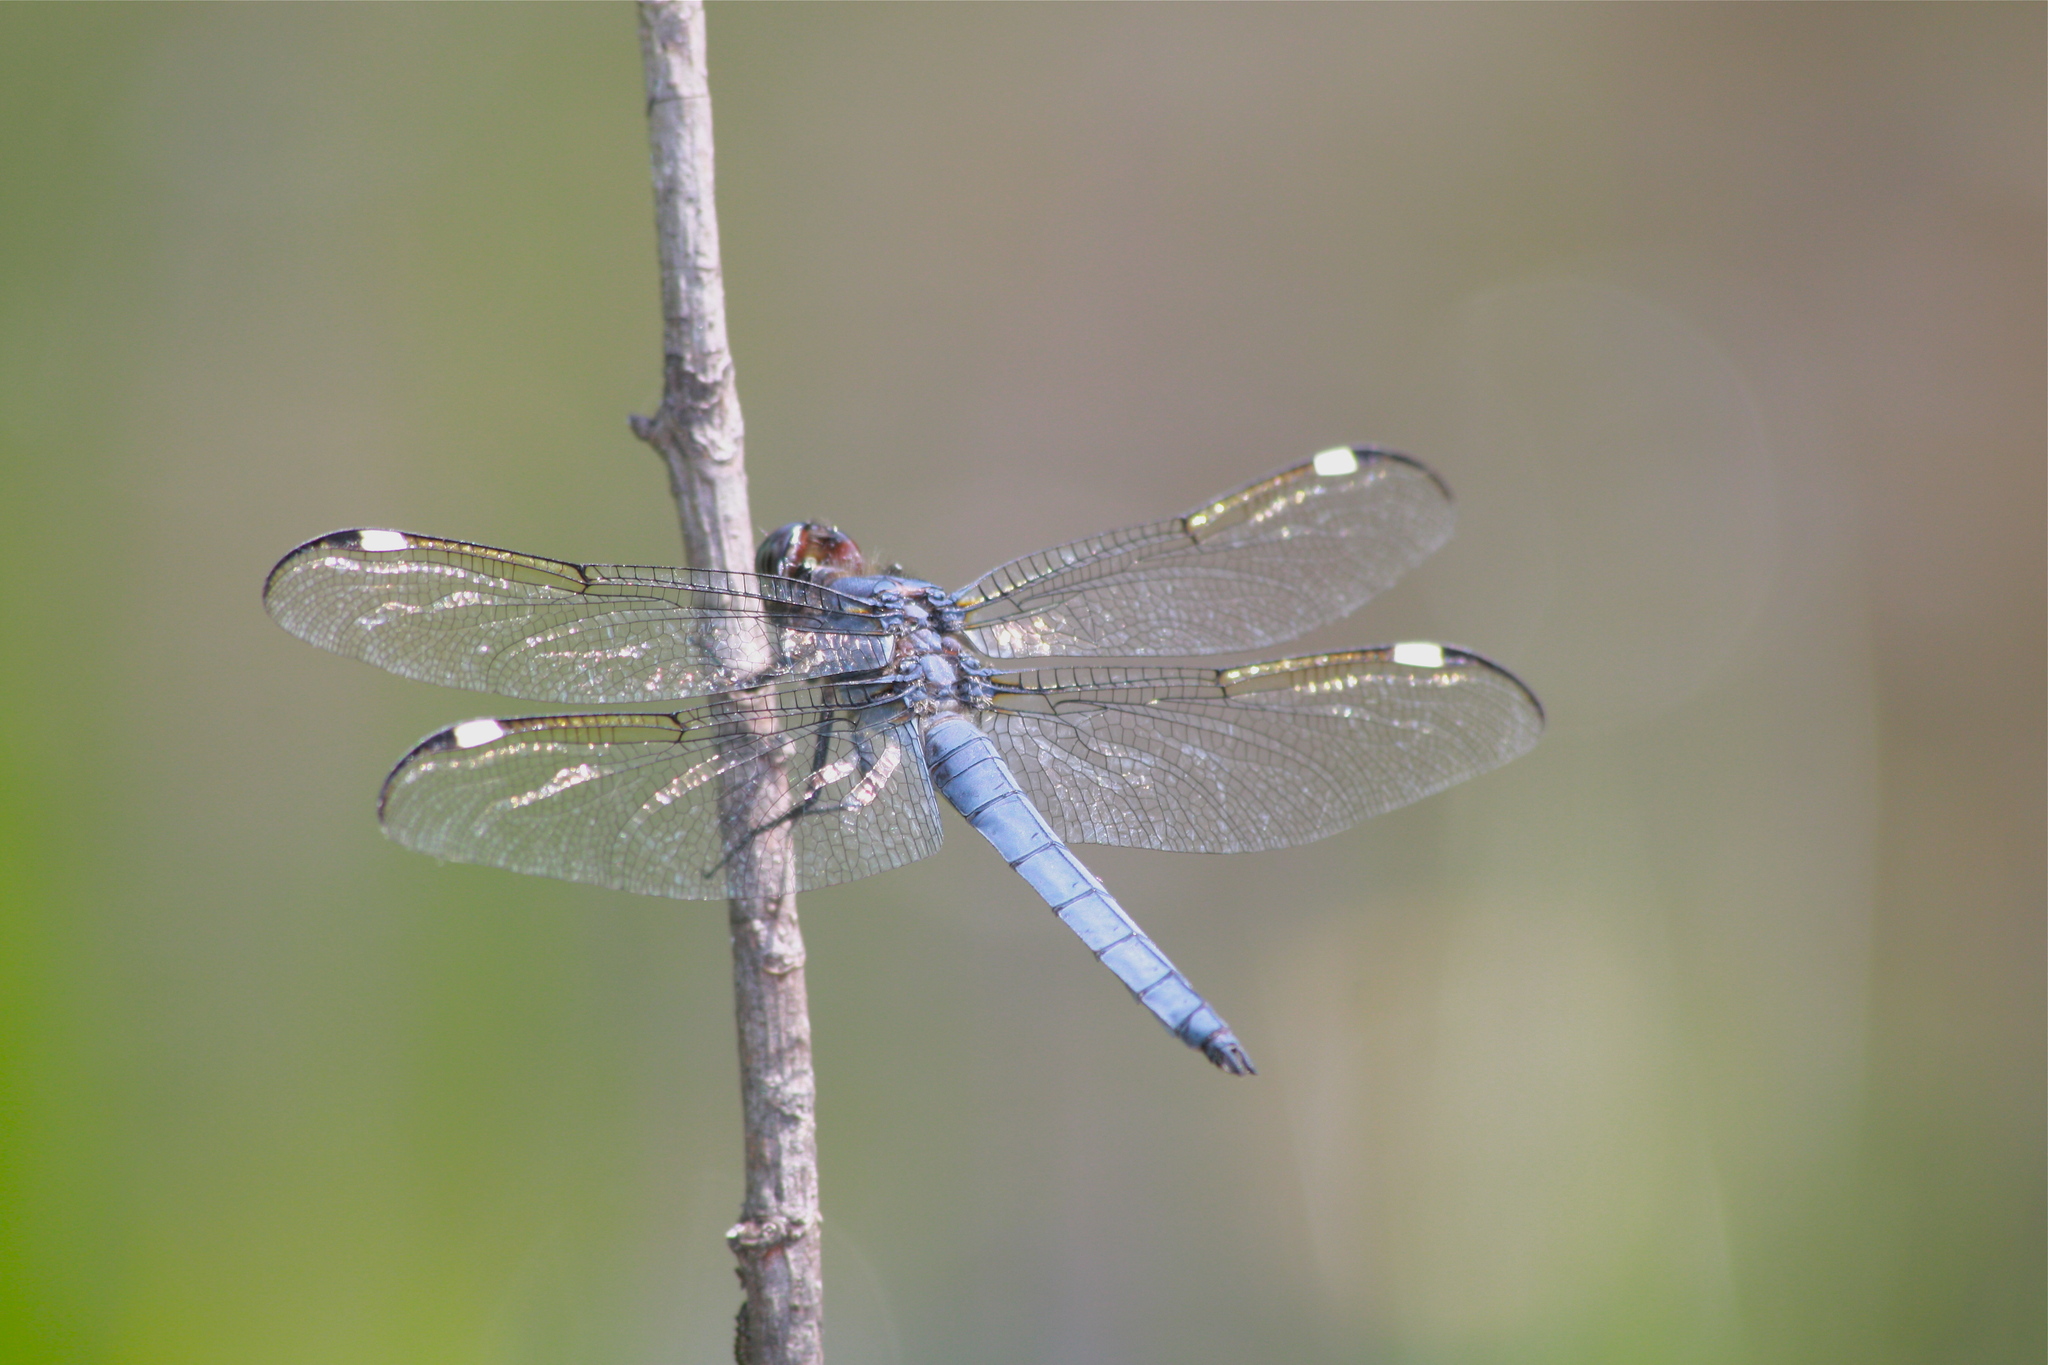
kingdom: Animalia
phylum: Arthropoda
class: Insecta
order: Odonata
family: Libellulidae
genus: Libellula
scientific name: Libellula cyanea
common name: Spangled skimmer
